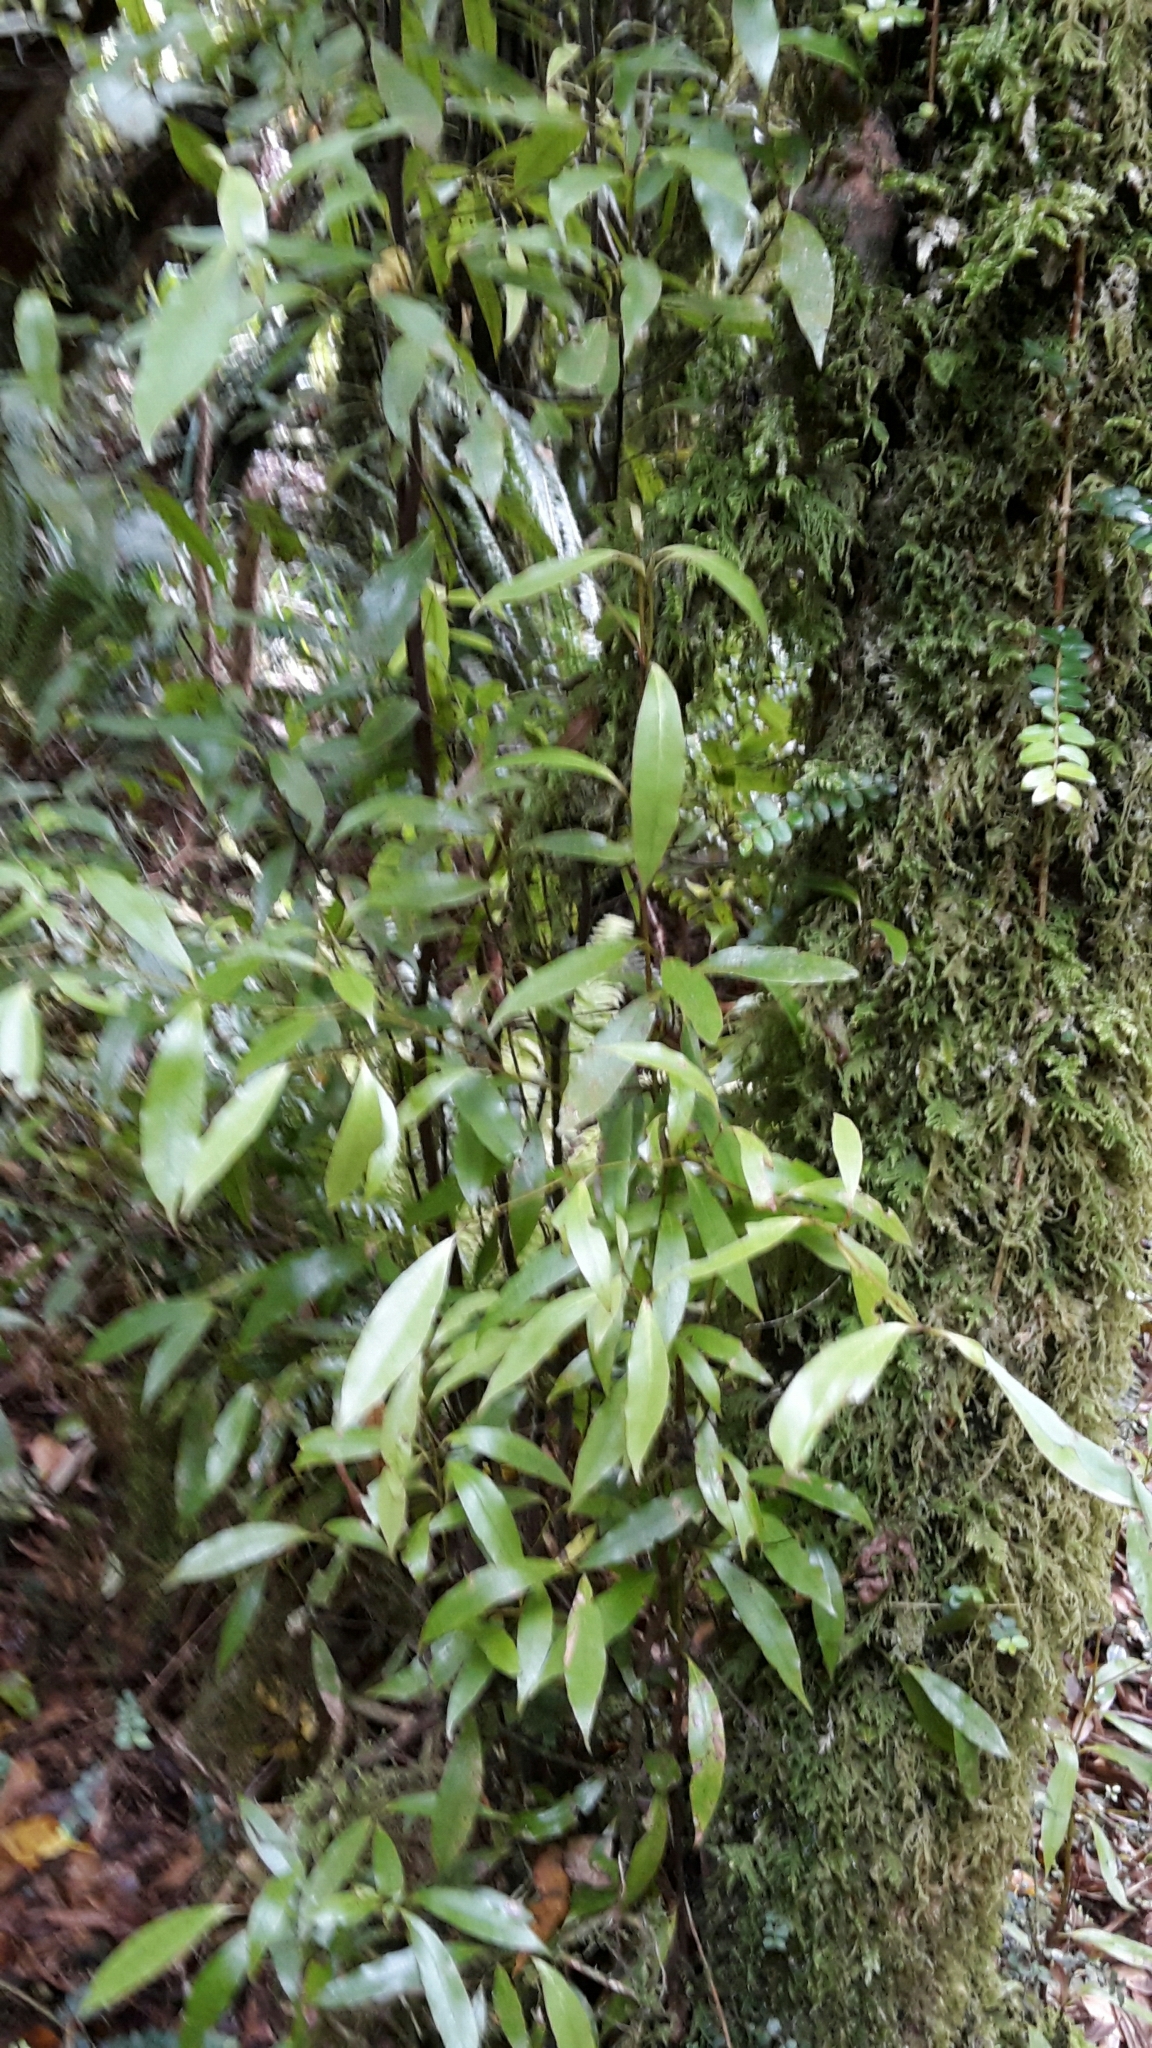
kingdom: Plantae
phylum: Tracheophyta
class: Magnoliopsida
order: Laurales
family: Lauraceae
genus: Beilschmiedia
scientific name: Beilschmiedia tawa
